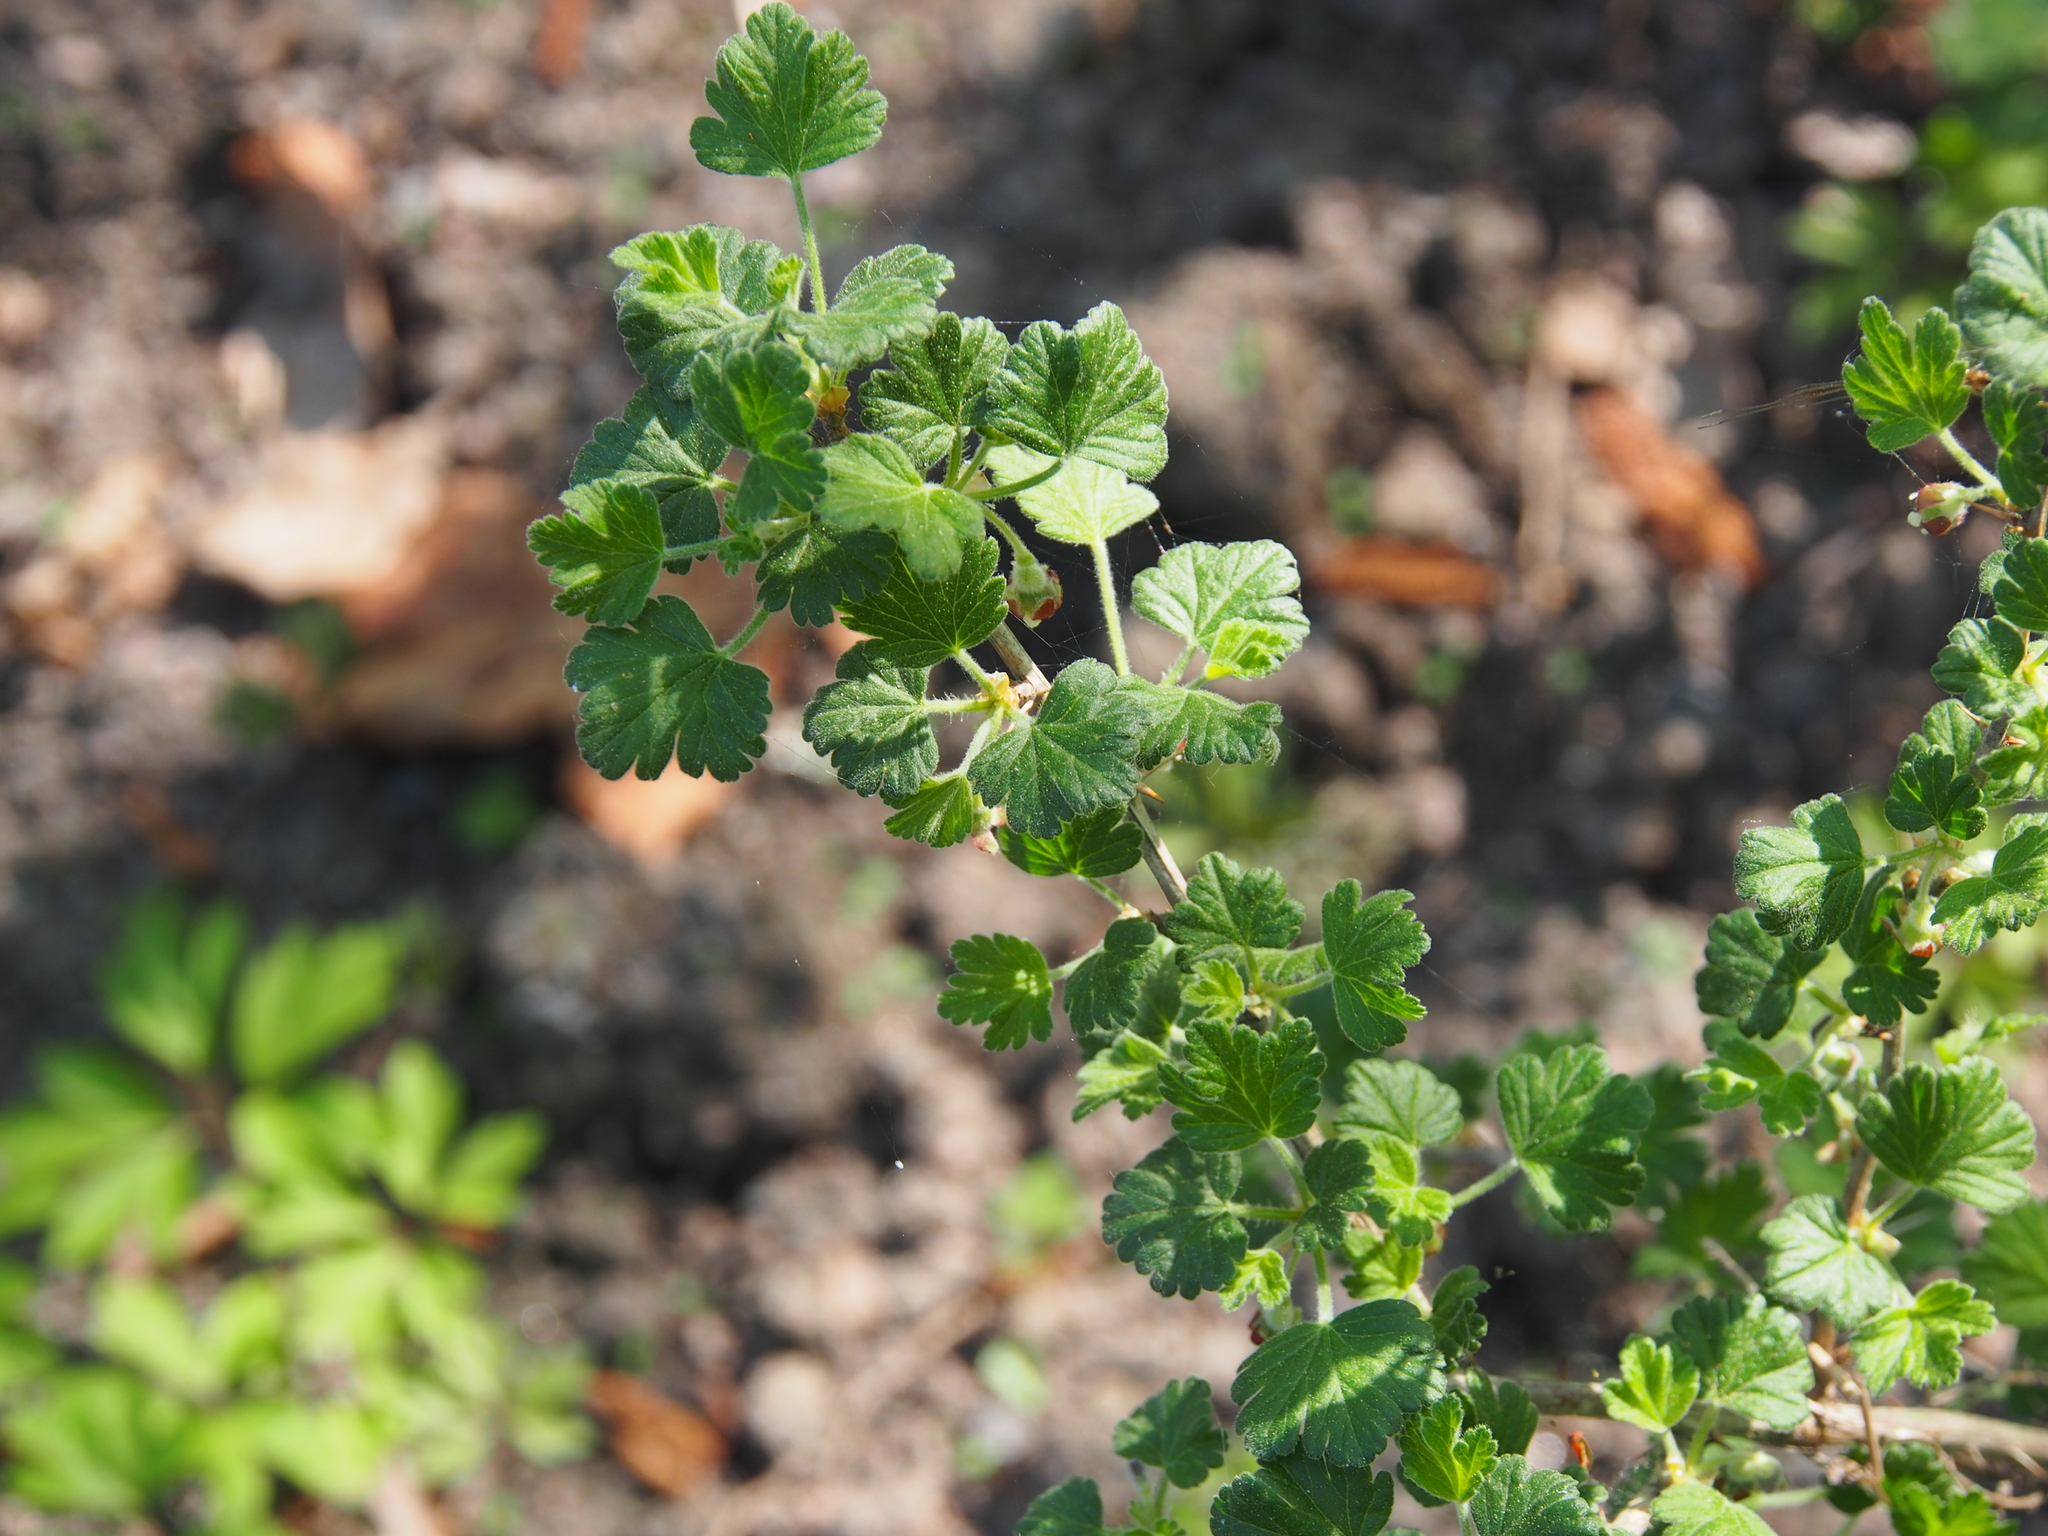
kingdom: Plantae
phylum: Tracheophyta
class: Magnoliopsida
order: Saxifragales
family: Grossulariaceae
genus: Ribes
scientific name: Ribes alpinum
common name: Alpine currant
